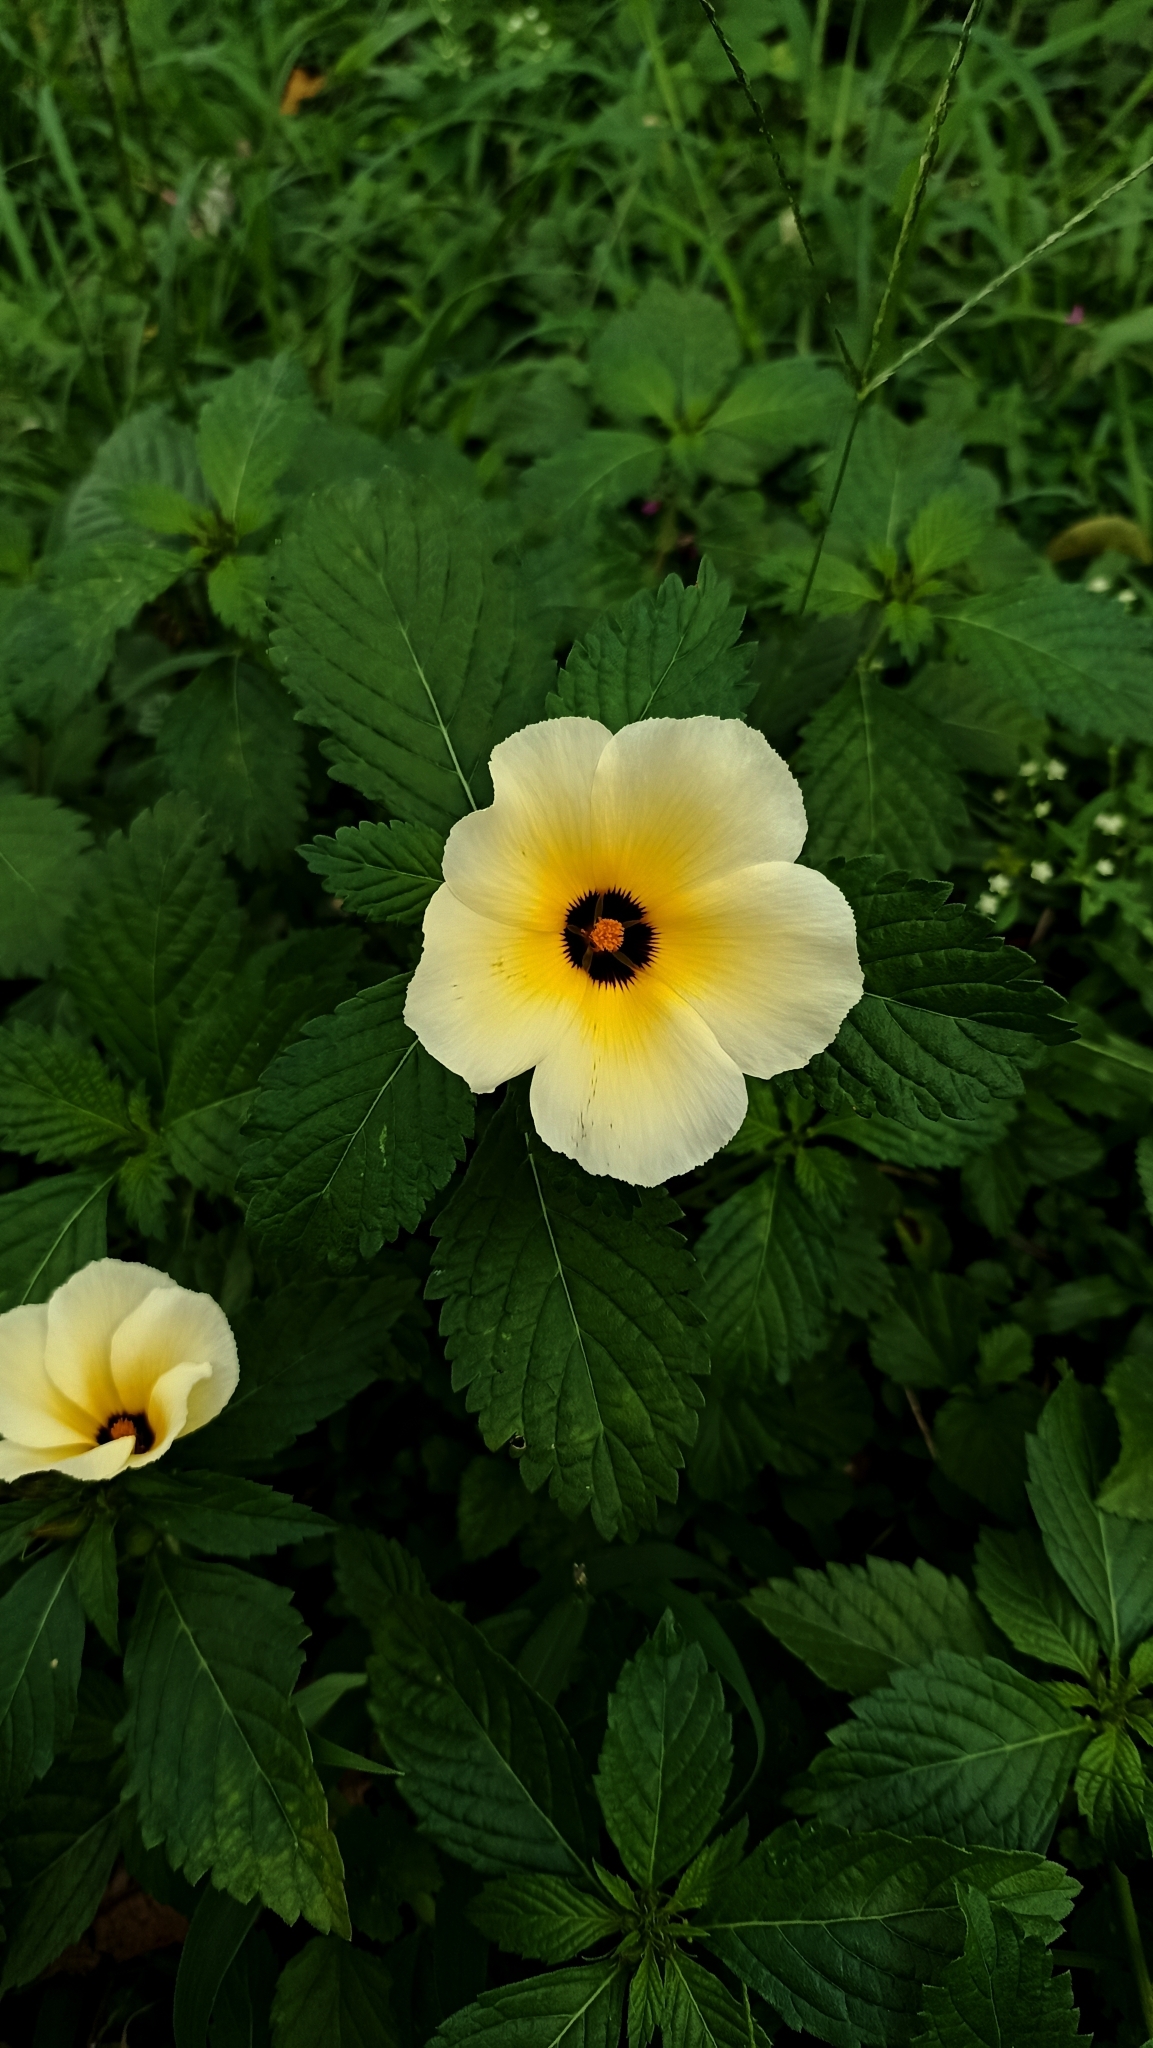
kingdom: Plantae
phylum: Tracheophyta
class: Magnoliopsida
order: Malpighiales
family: Turneraceae
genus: Turnera
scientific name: Turnera subulata
